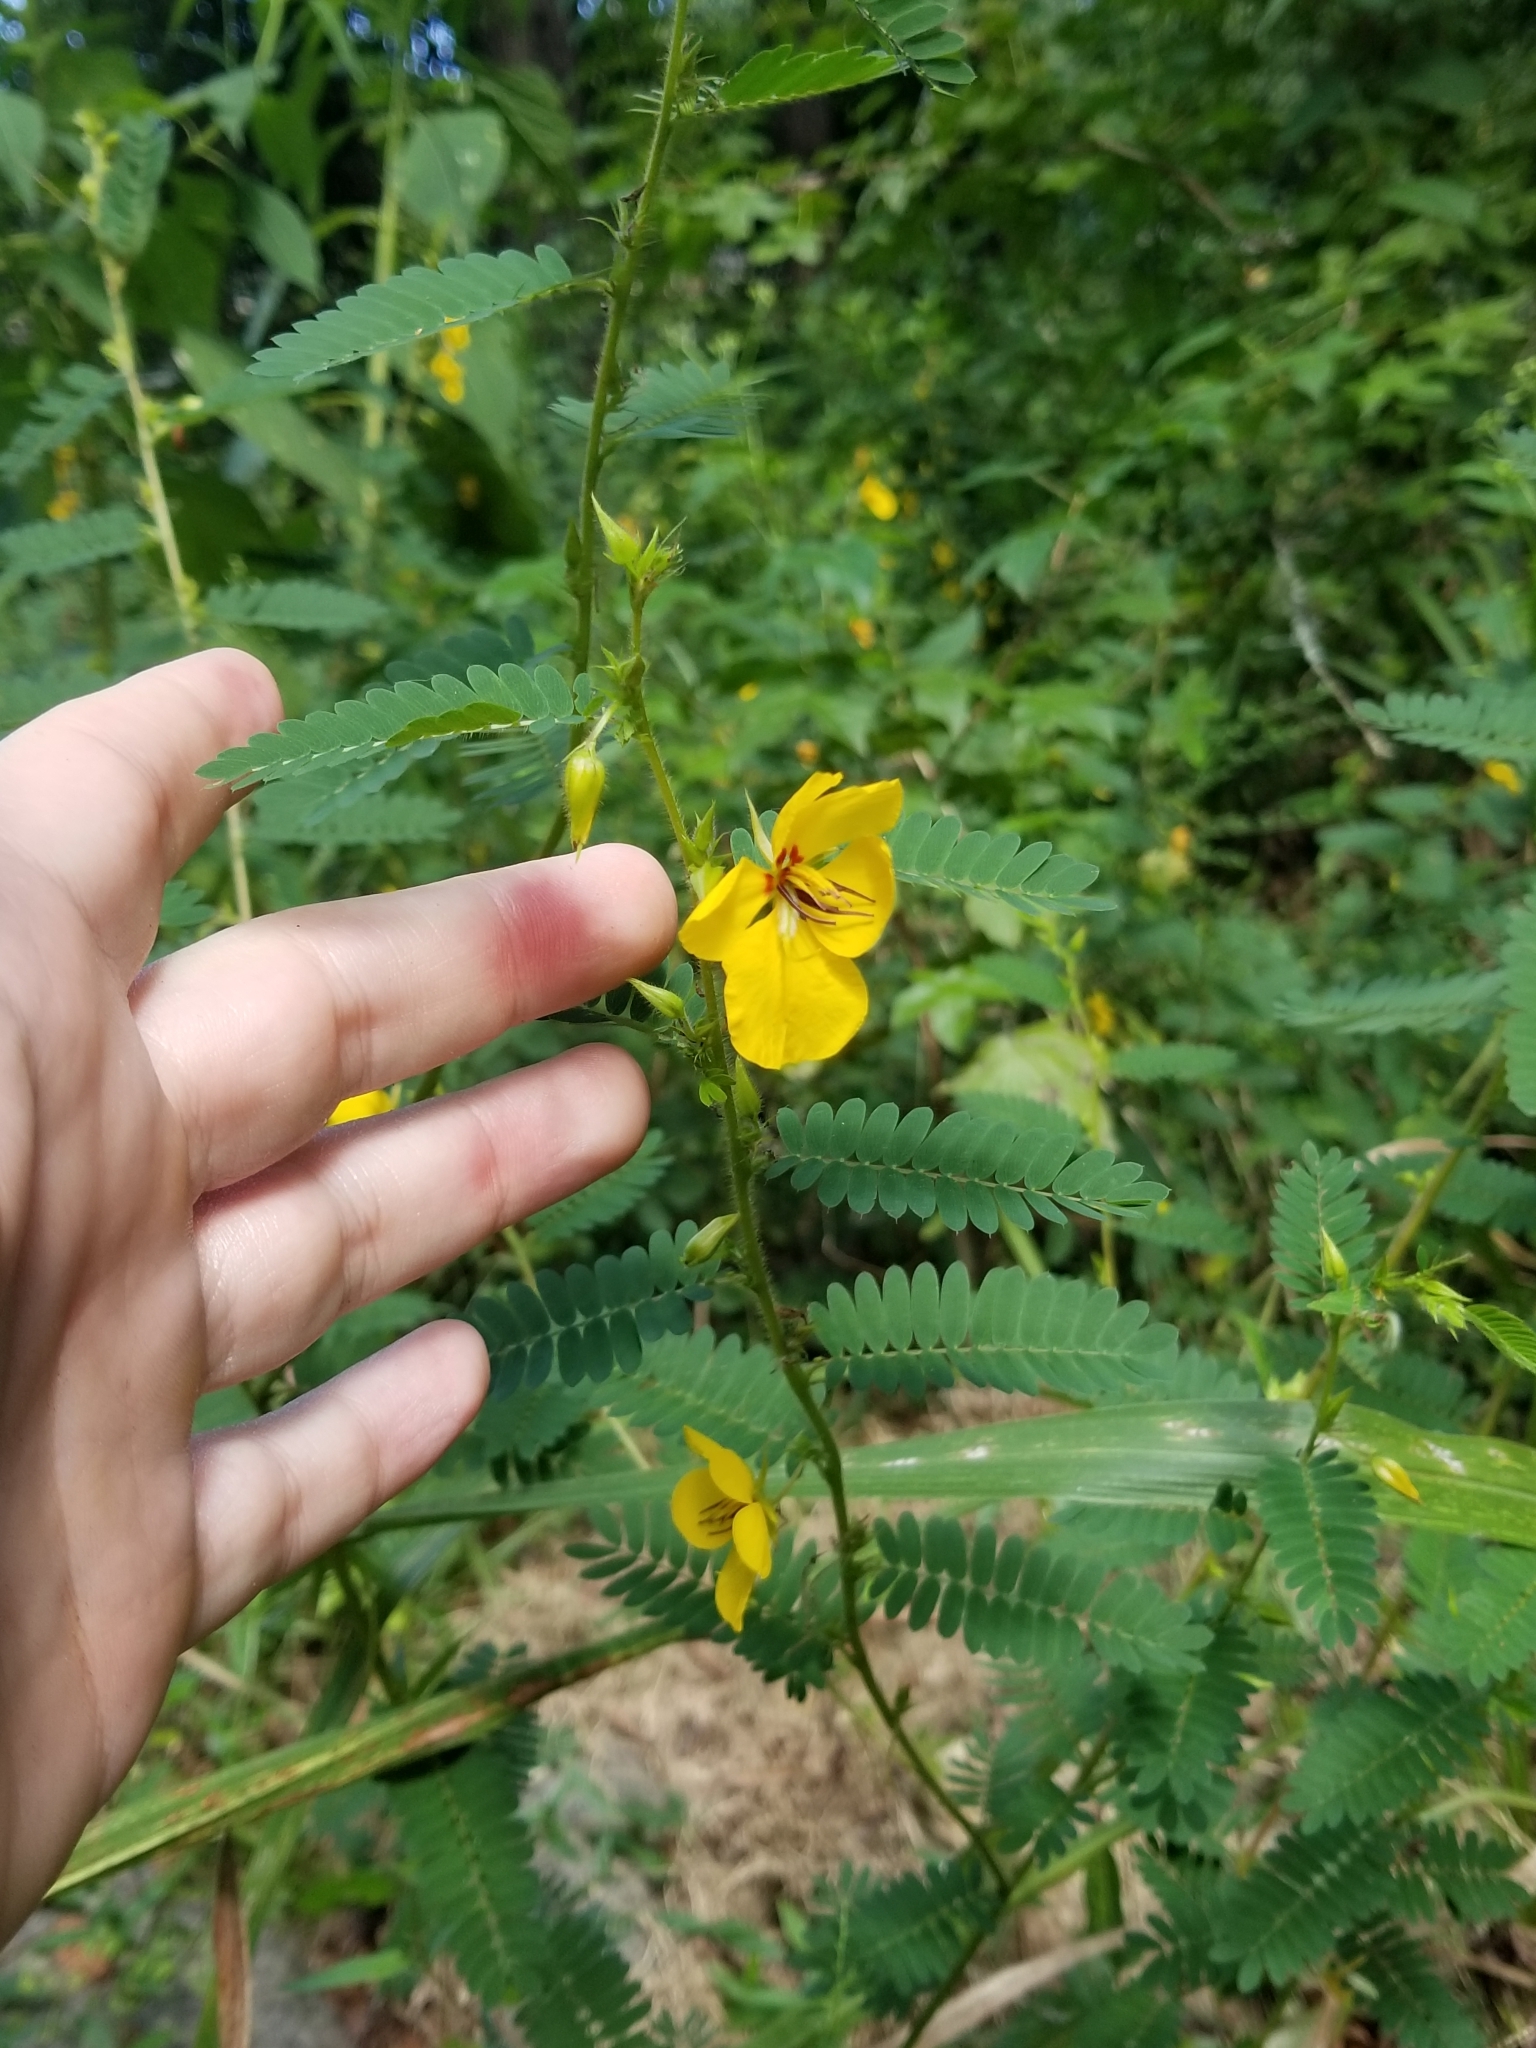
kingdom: Plantae
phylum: Tracheophyta
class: Magnoliopsida
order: Fabales
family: Fabaceae
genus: Chamaecrista
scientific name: Chamaecrista fasciculata
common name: Golden cassia
